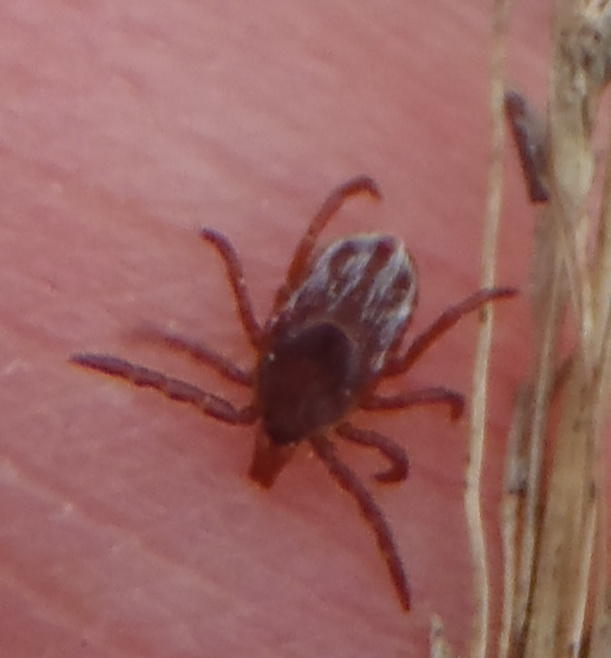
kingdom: Animalia
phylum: Arthropoda
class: Arachnida
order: Ixodida
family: Ixodidae
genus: Ixodes
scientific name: Ixodes pilosus
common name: Bush tick
